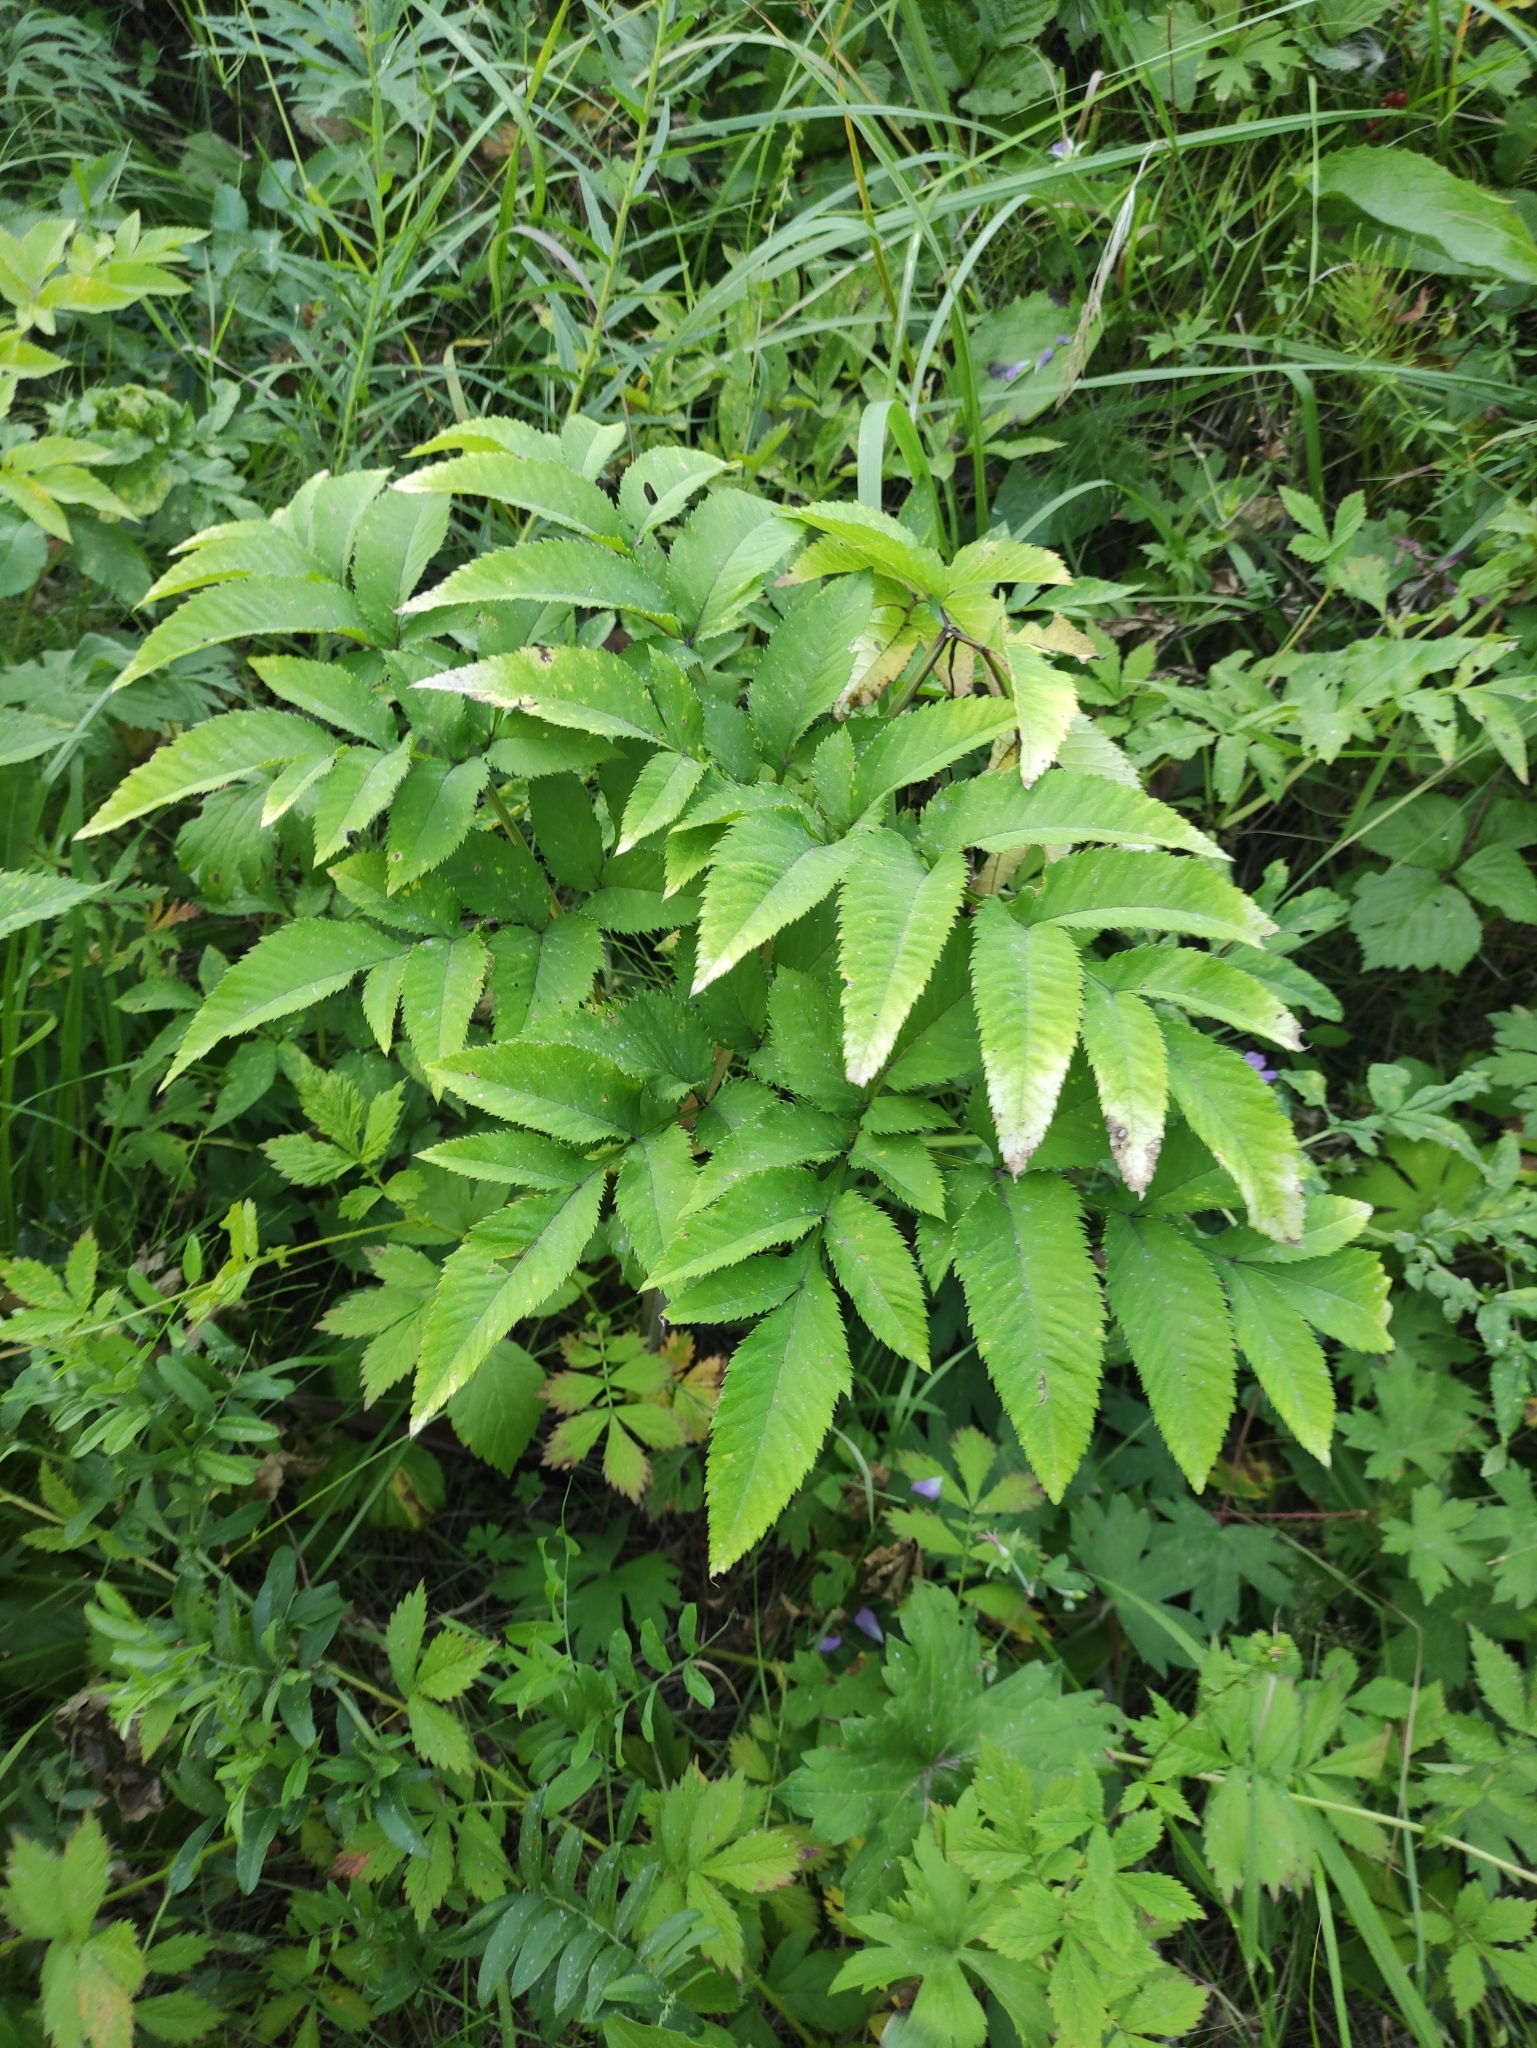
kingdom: Plantae
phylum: Tracheophyta
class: Magnoliopsida
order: Apiales
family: Apiaceae
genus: Angelica
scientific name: Angelica sylvestris
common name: Wild angelica
